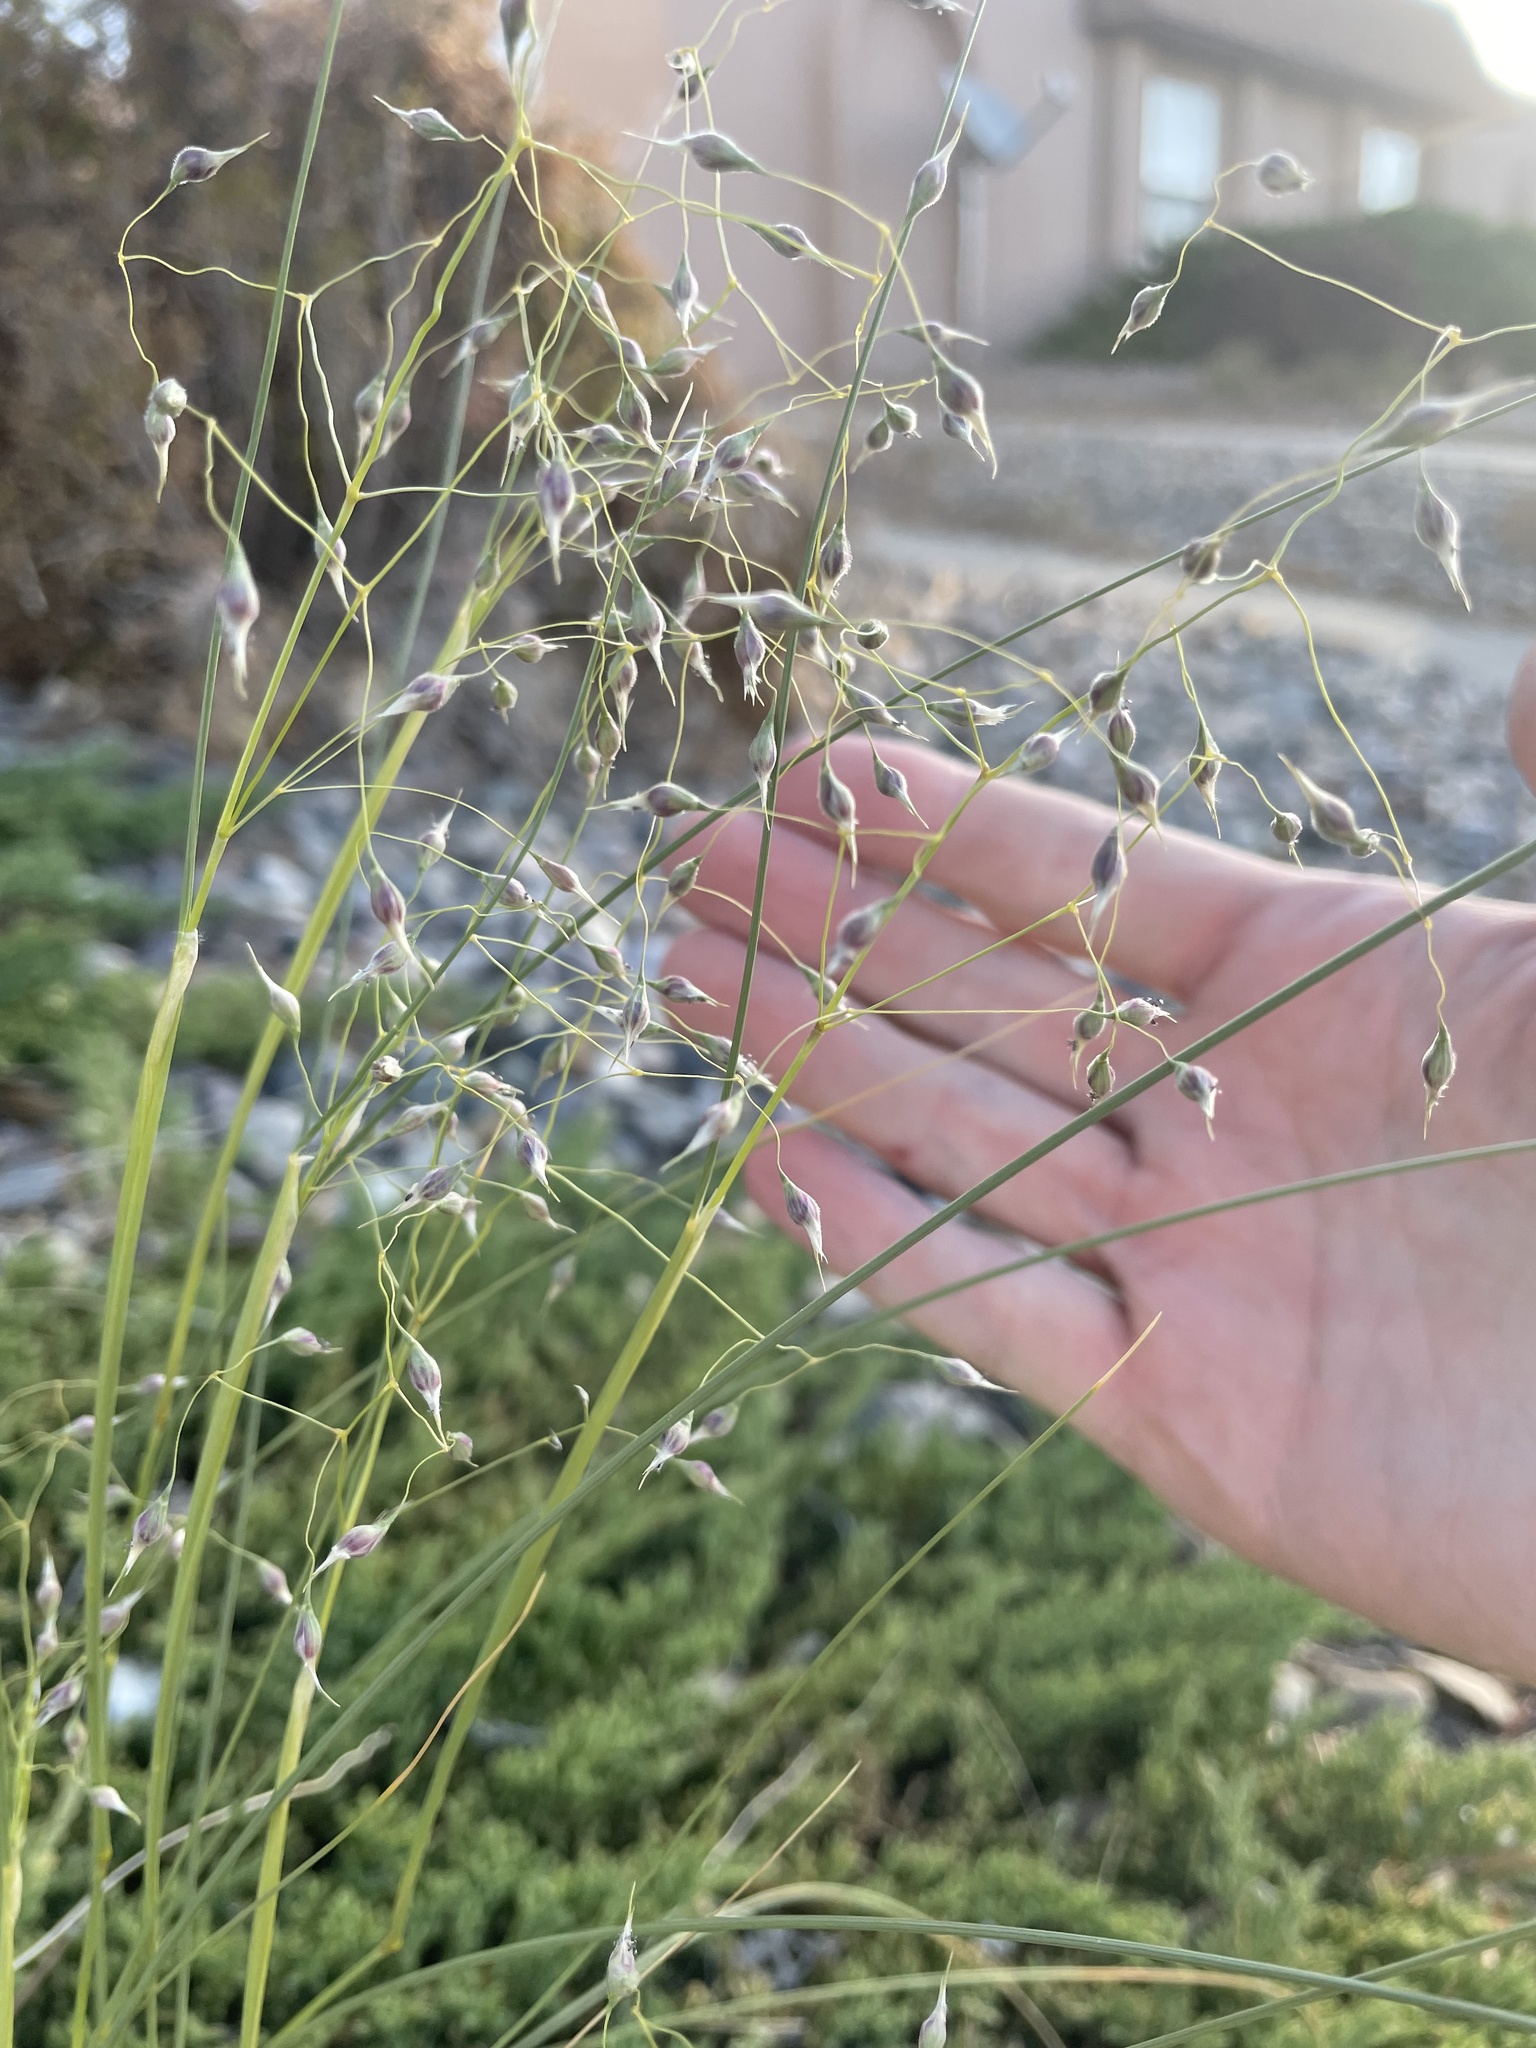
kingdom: Plantae
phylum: Tracheophyta
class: Liliopsida
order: Poales
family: Poaceae
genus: Eriocoma
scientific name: Eriocoma hymenoides
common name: Indian mountain ricegrass
